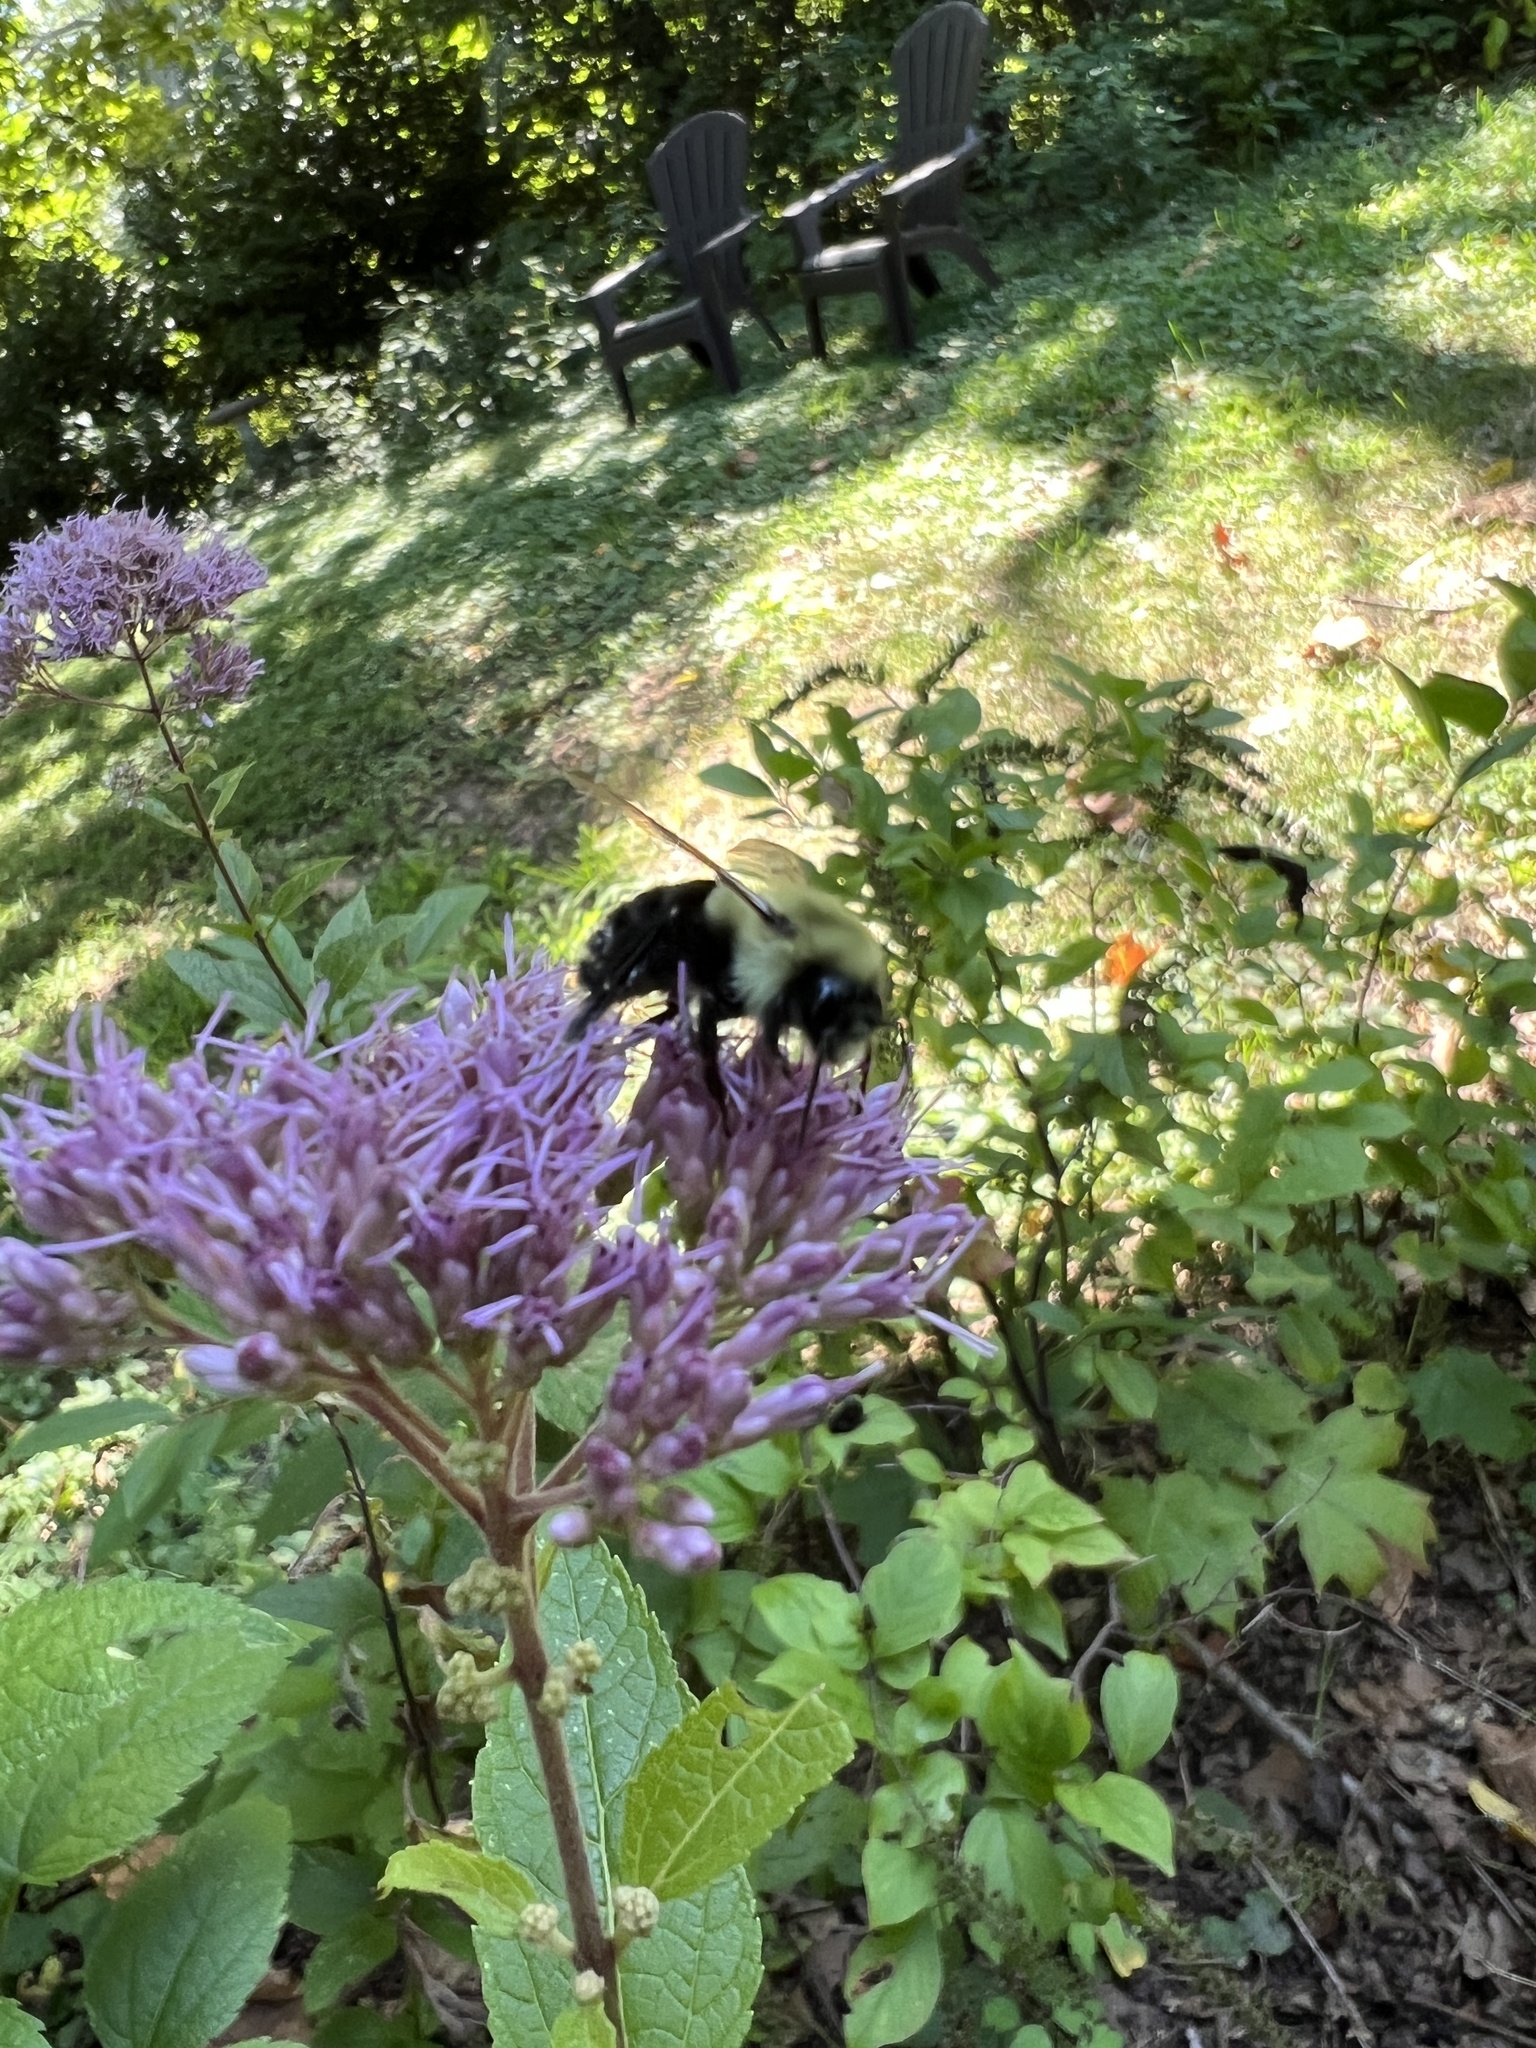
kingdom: Animalia
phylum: Arthropoda
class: Insecta
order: Hymenoptera
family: Apidae
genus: Bombus
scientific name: Bombus impatiens
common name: Common eastern bumble bee
